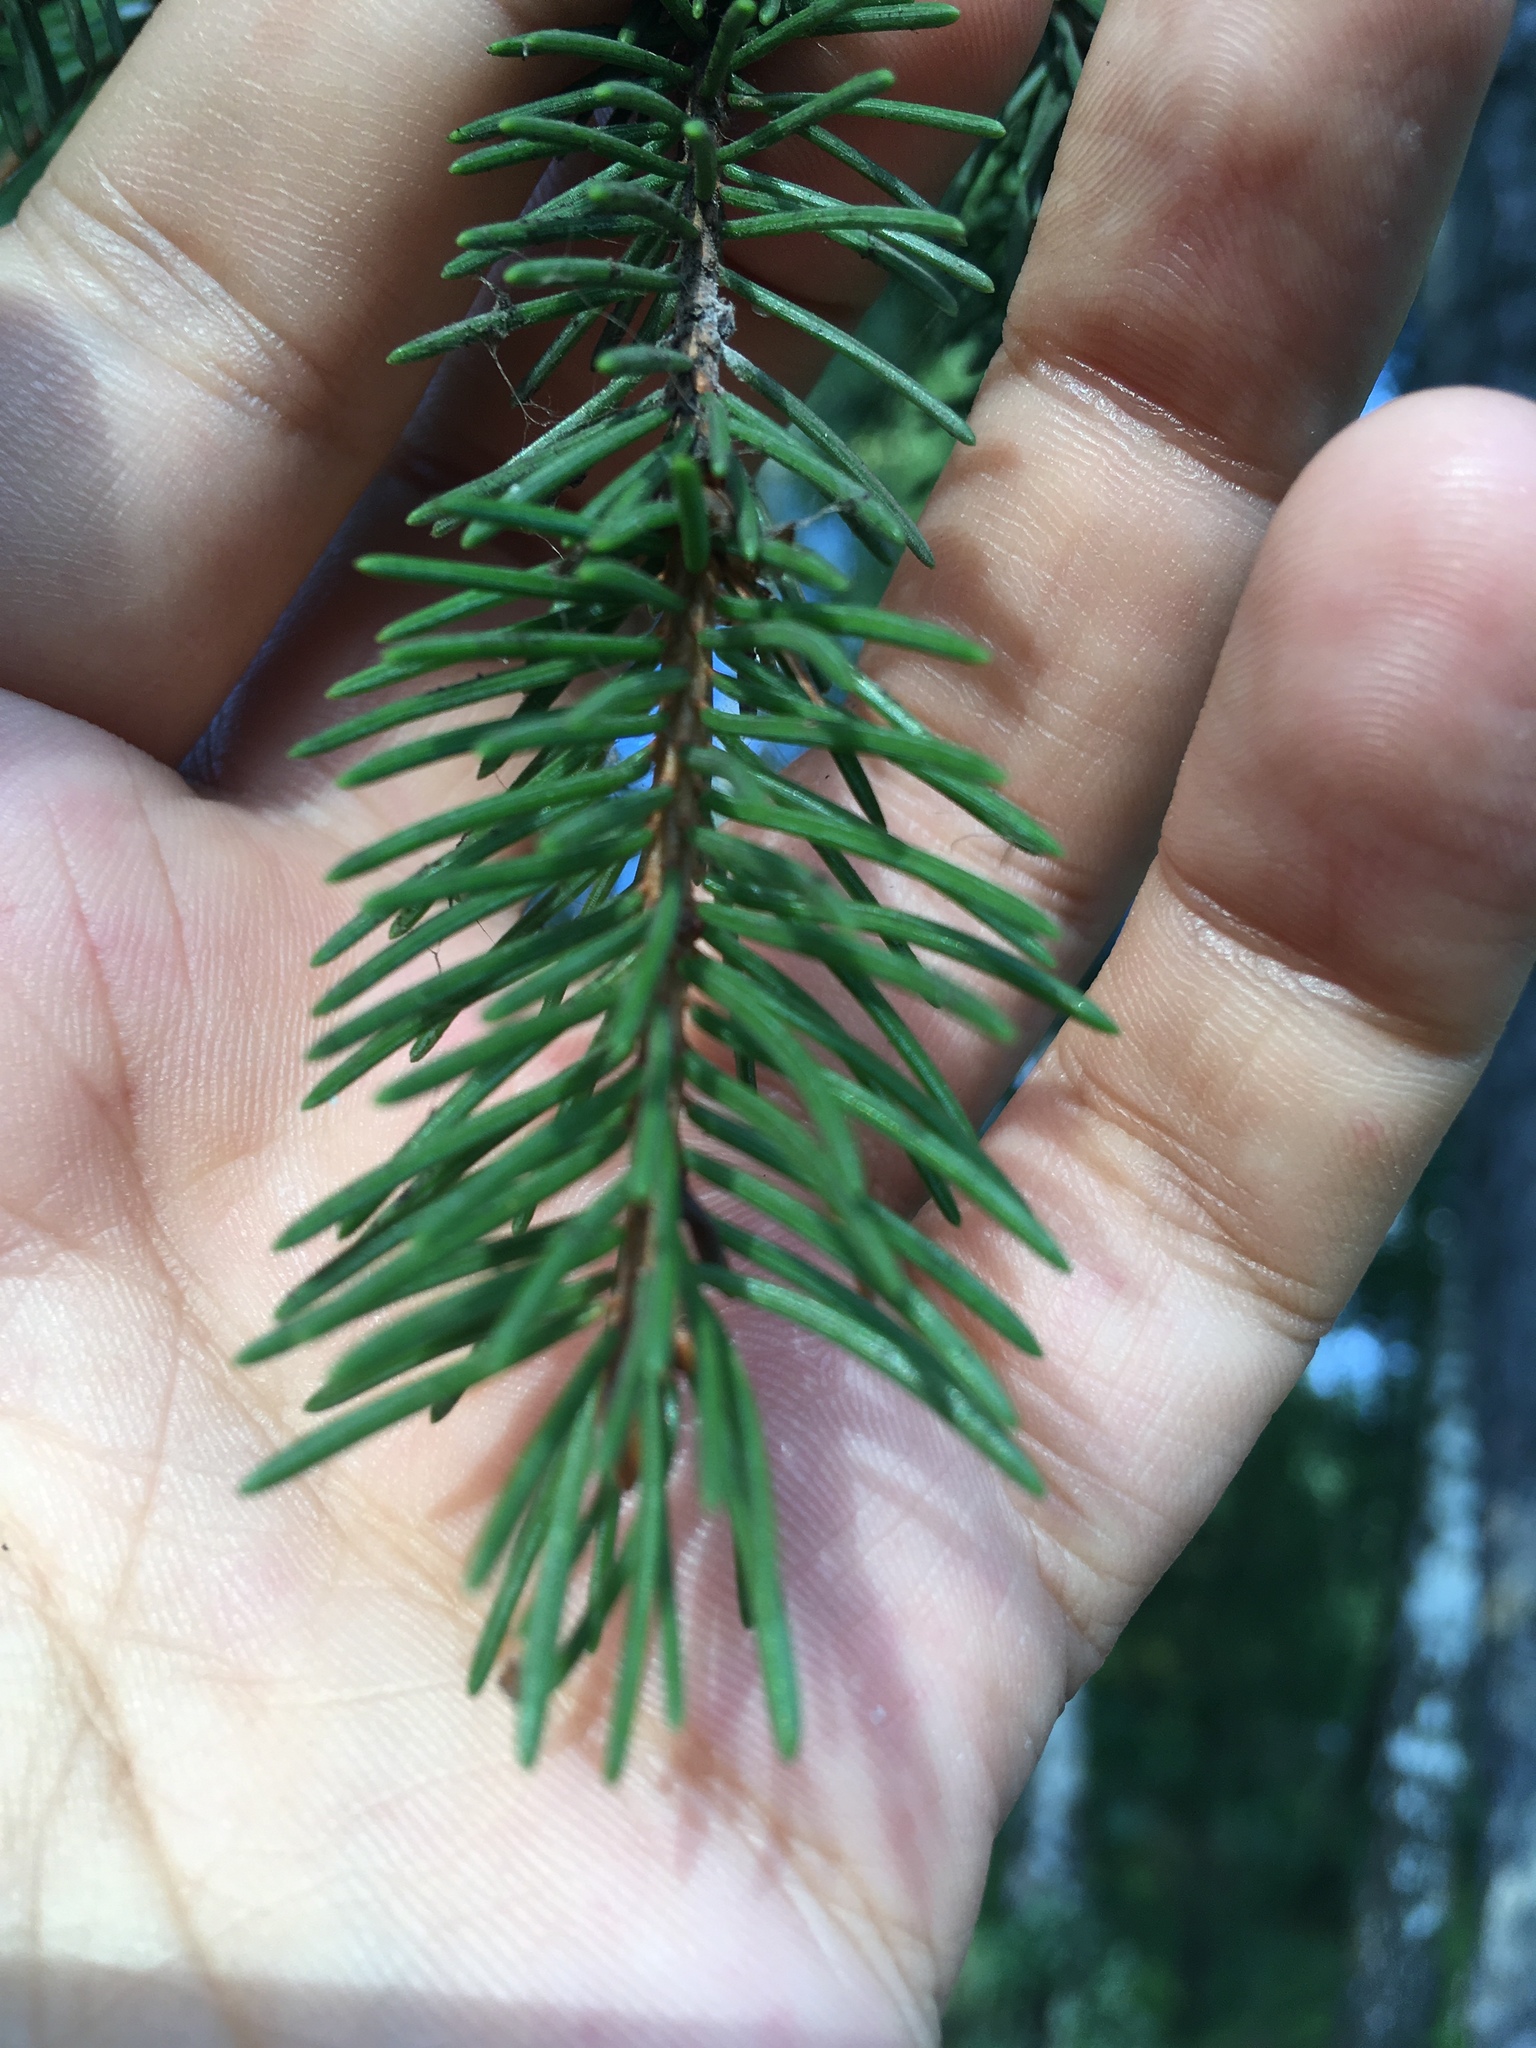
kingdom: Plantae
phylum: Tracheophyta
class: Pinopsida
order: Pinales
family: Pinaceae
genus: Picea
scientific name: Picea abies
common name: Norway spruce
